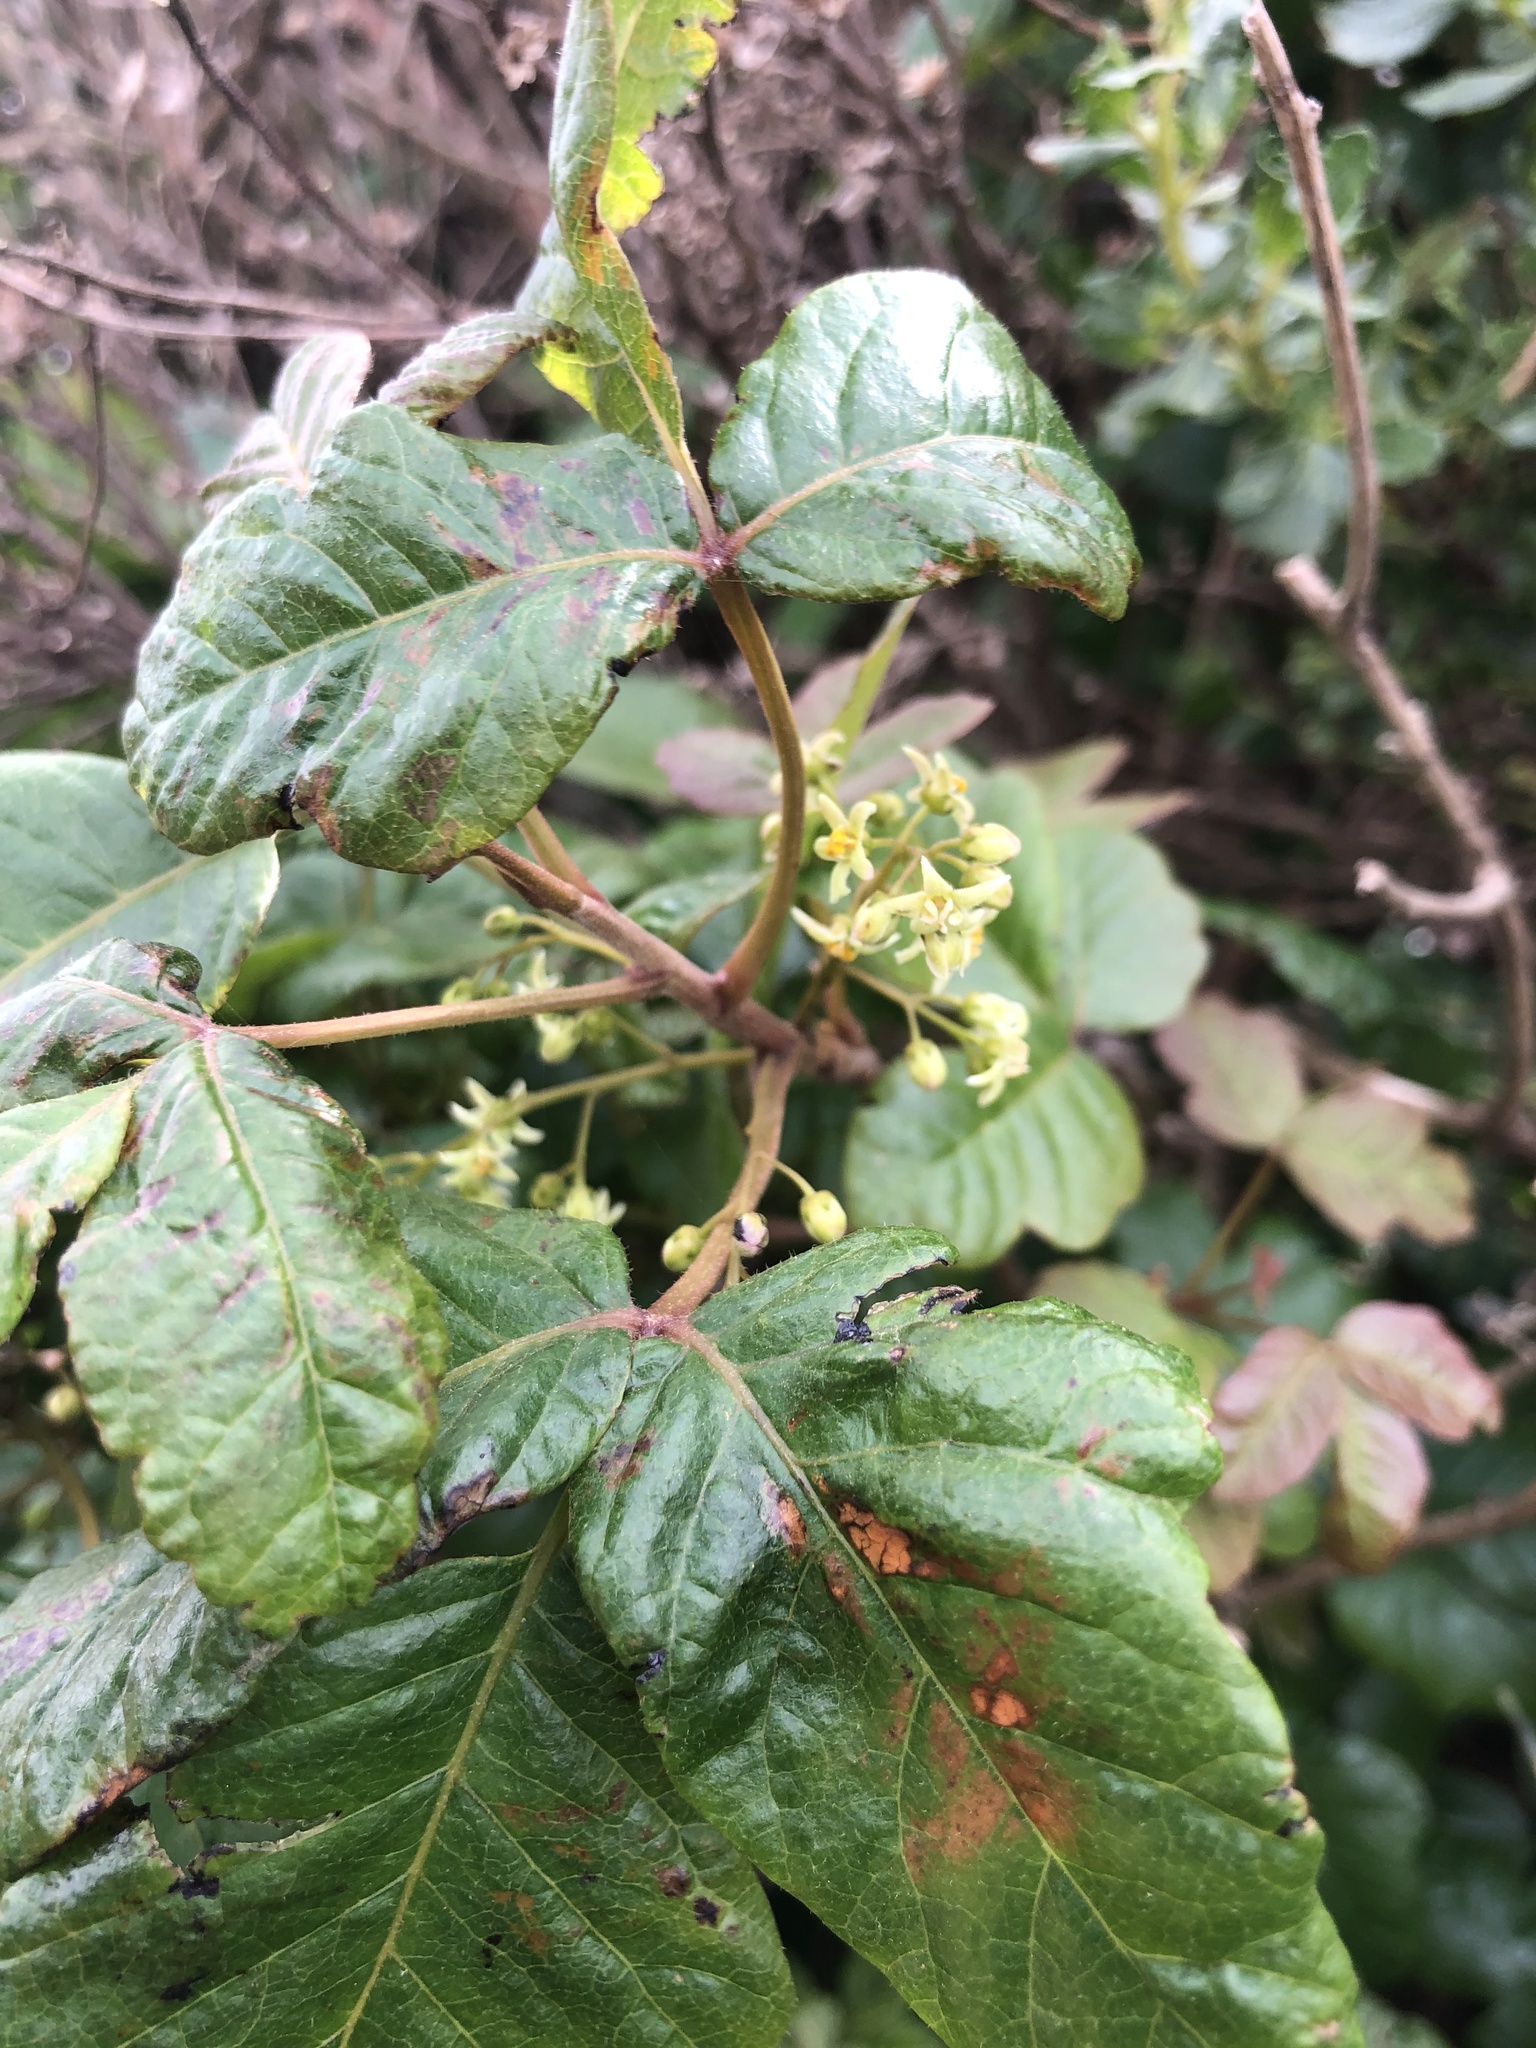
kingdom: Plantae
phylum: Tracheophyta
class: Magnoliopsida
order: Sapindales
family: Anacardiaceae
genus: Toxicodendron
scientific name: Toxicodendron diversilobum
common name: Pacific poison-oak
